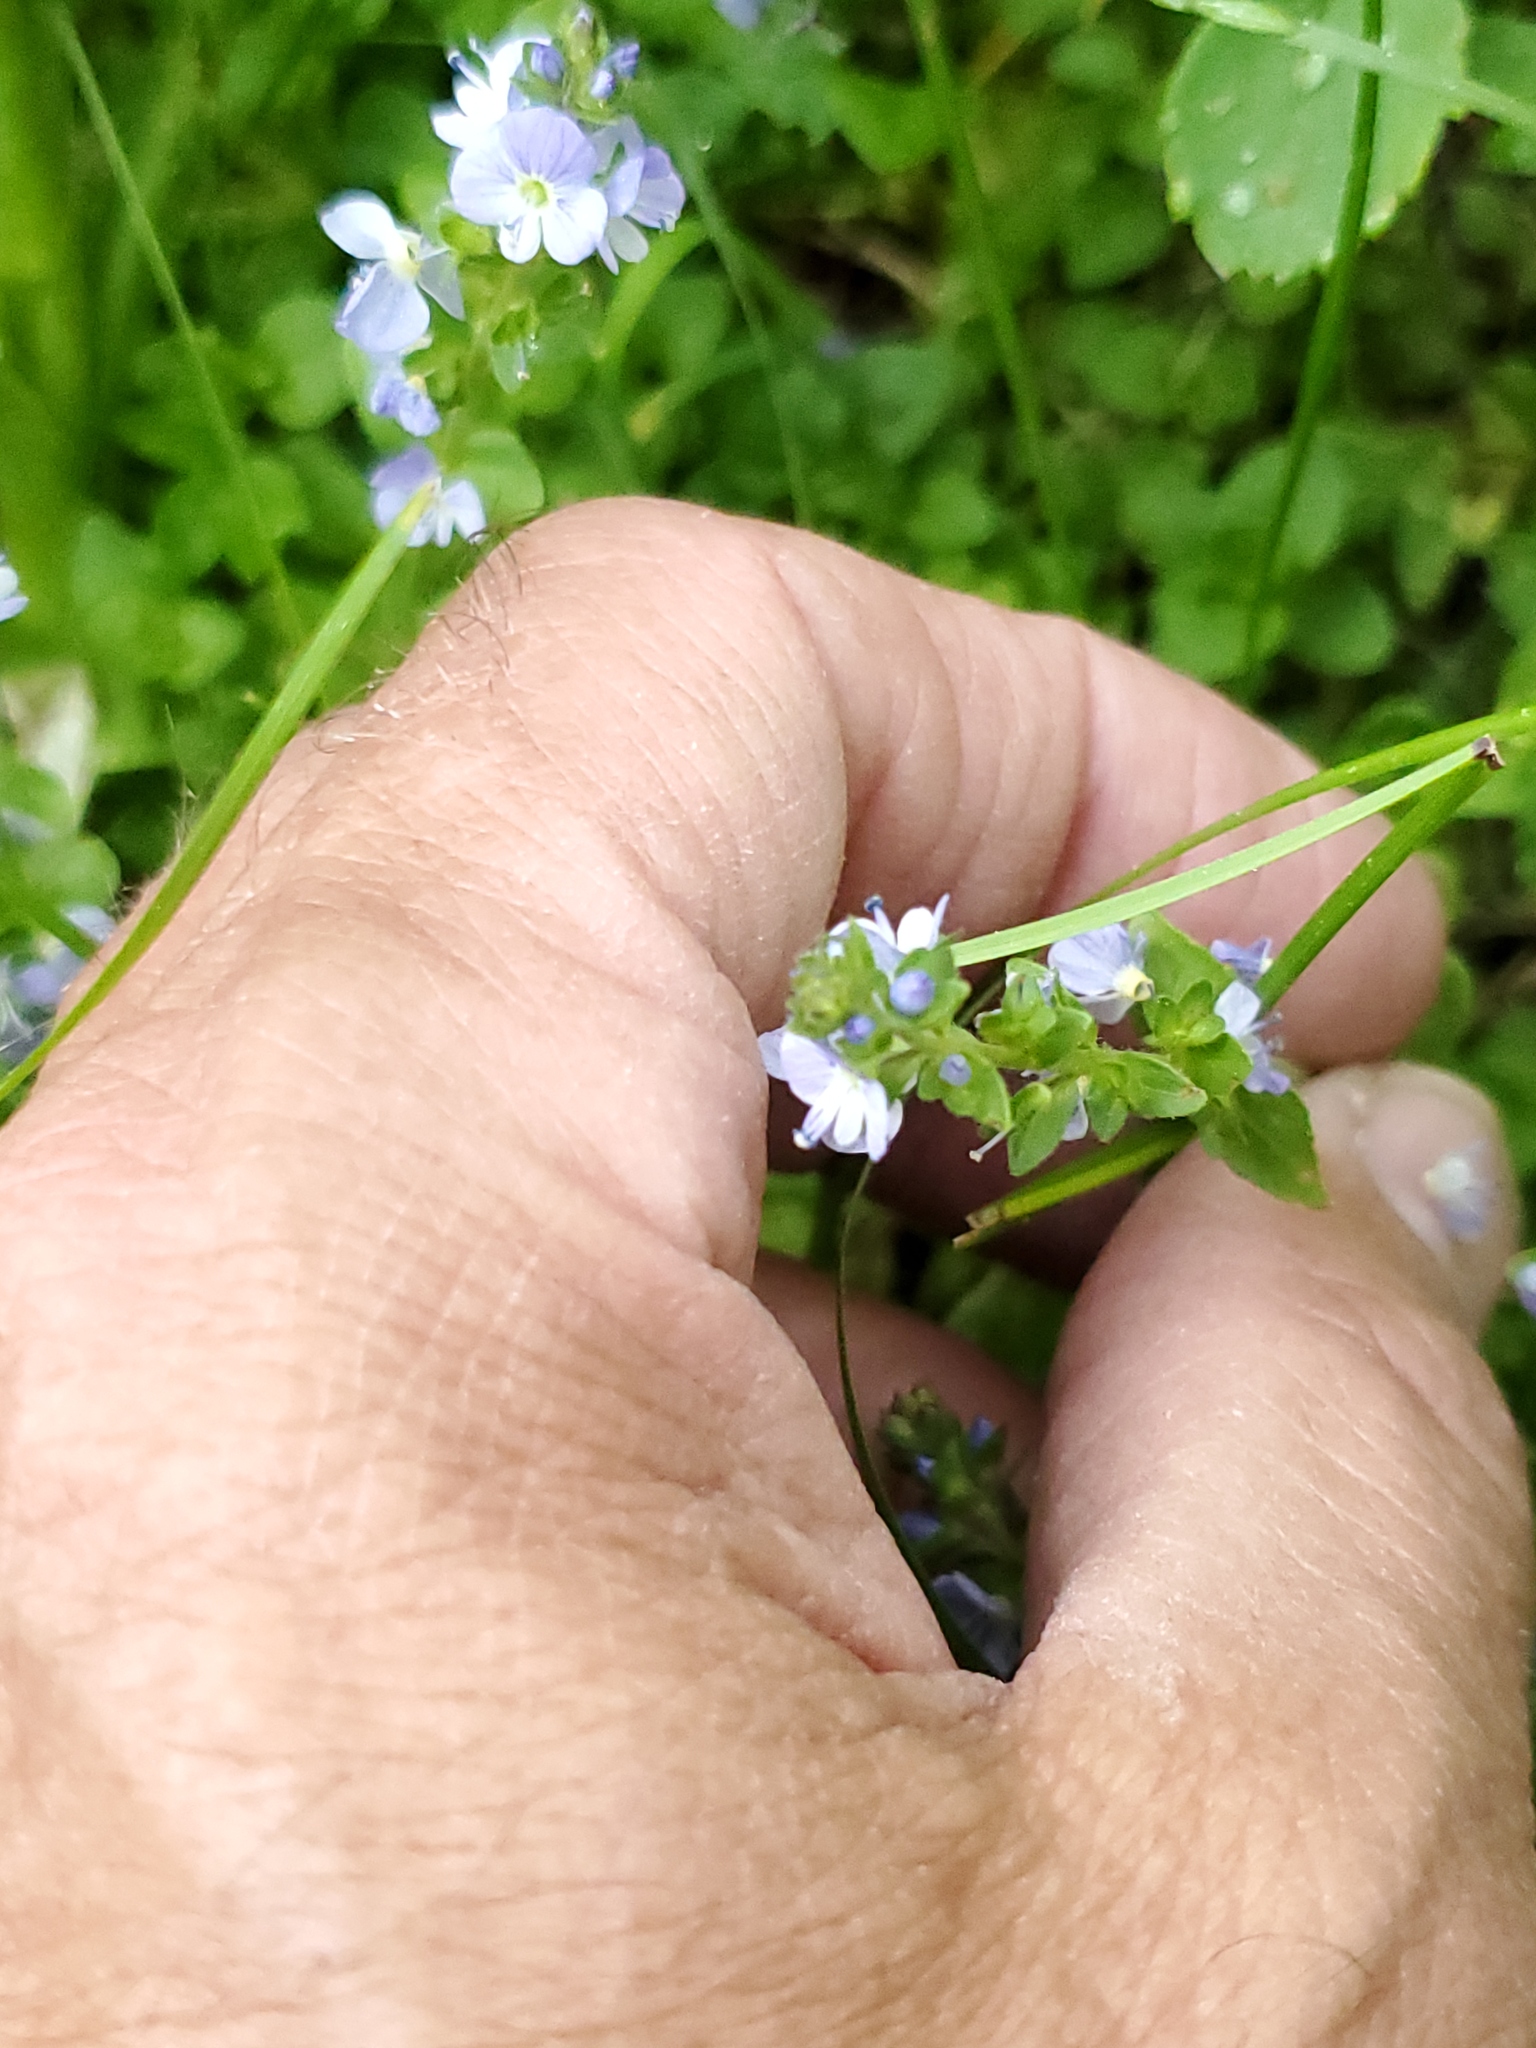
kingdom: Plantae
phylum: Tracheophyta
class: Magnoliopsida
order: Lamiales
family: Plantaginaceae
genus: Veronica
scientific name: Veronica serpyllifolia
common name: Thyme-leaved speedwell
